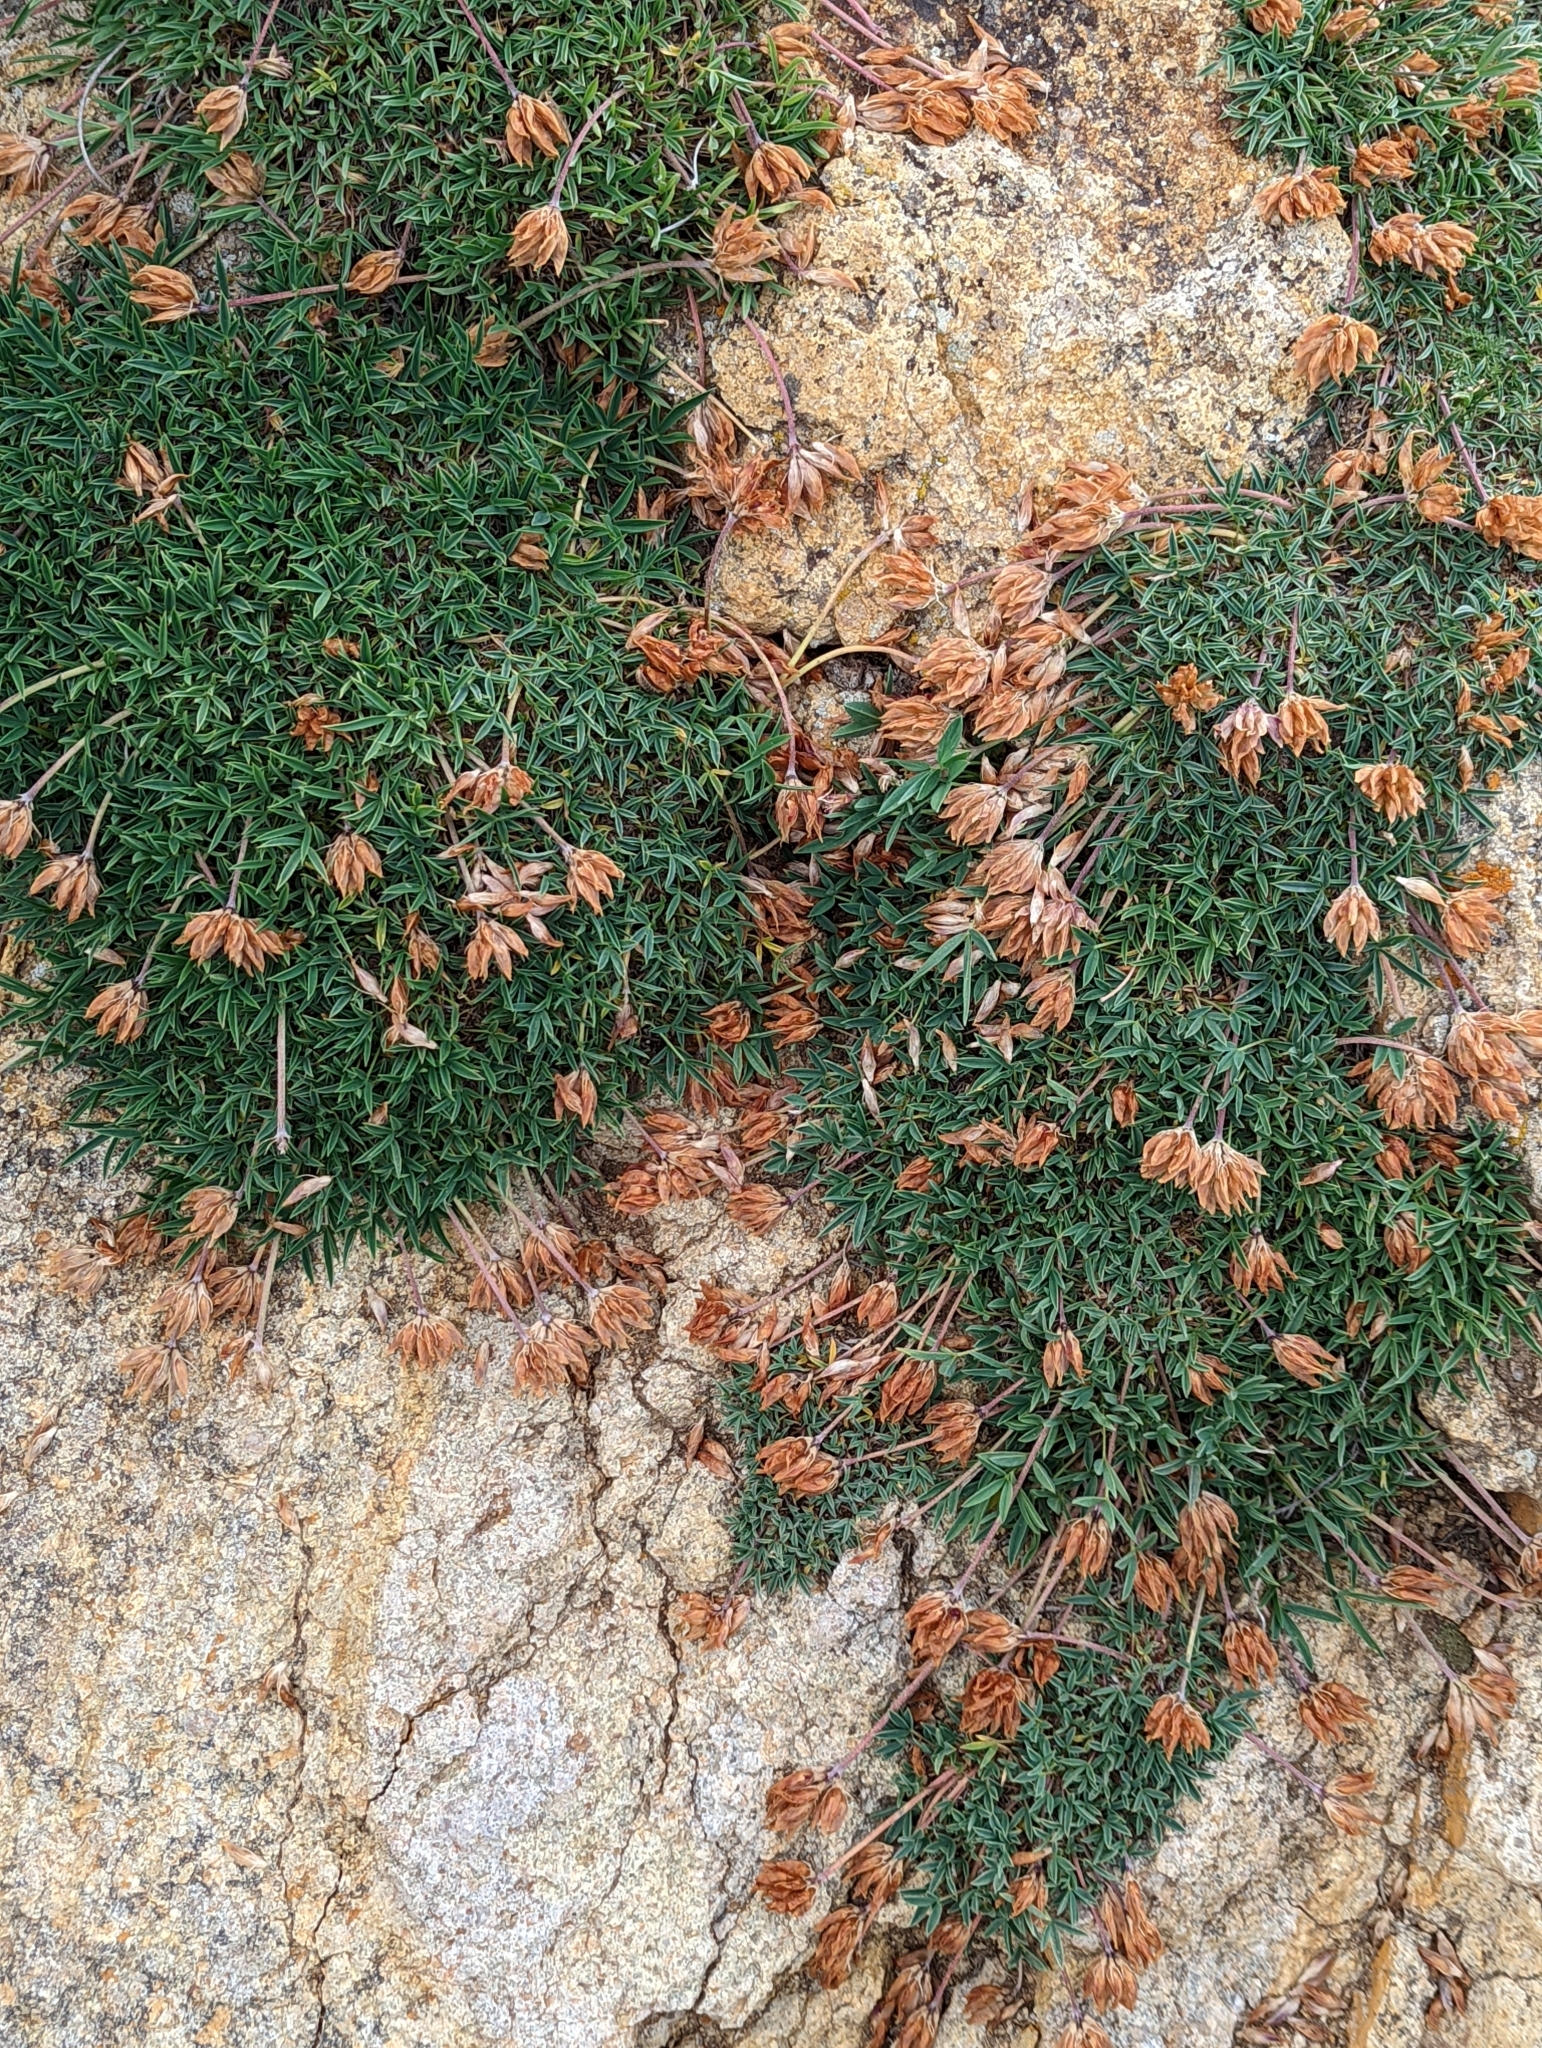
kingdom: Plantae
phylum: Tracheophyta
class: Magnoliopsida
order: Fabales
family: Fabaceae
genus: Trifolium
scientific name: Trifolium dasyphyllum
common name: Whip-root clover
